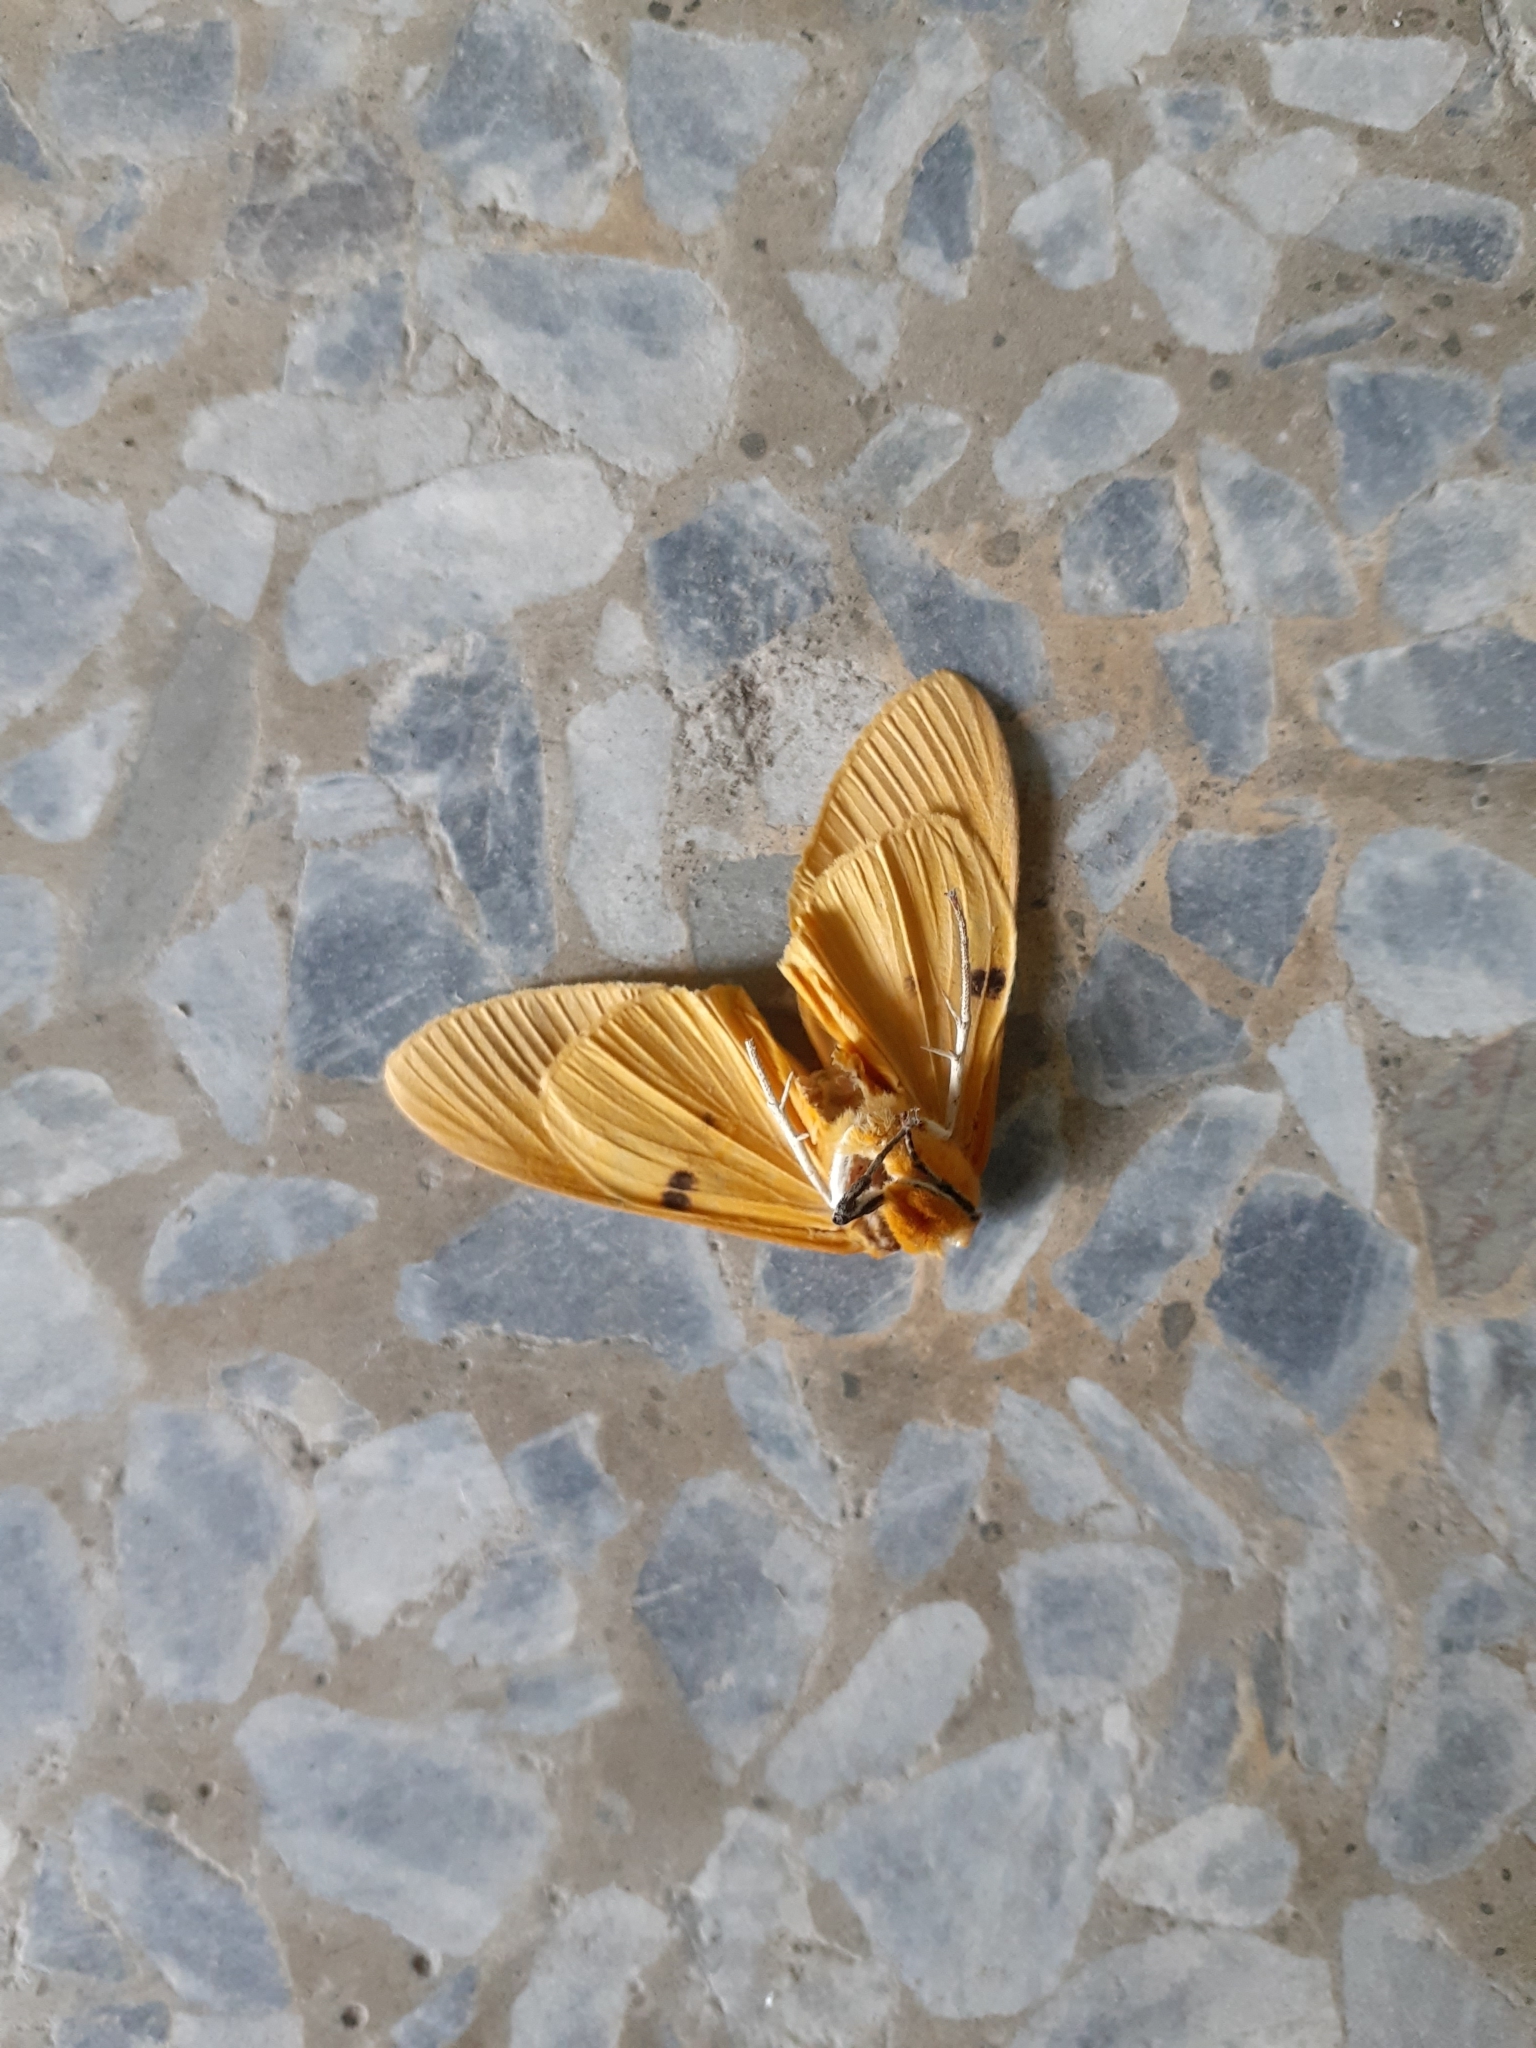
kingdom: Animalia
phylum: Arthropoda
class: Insecta
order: Lepidoptera
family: Erebidae
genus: Asota
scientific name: Asota egens
